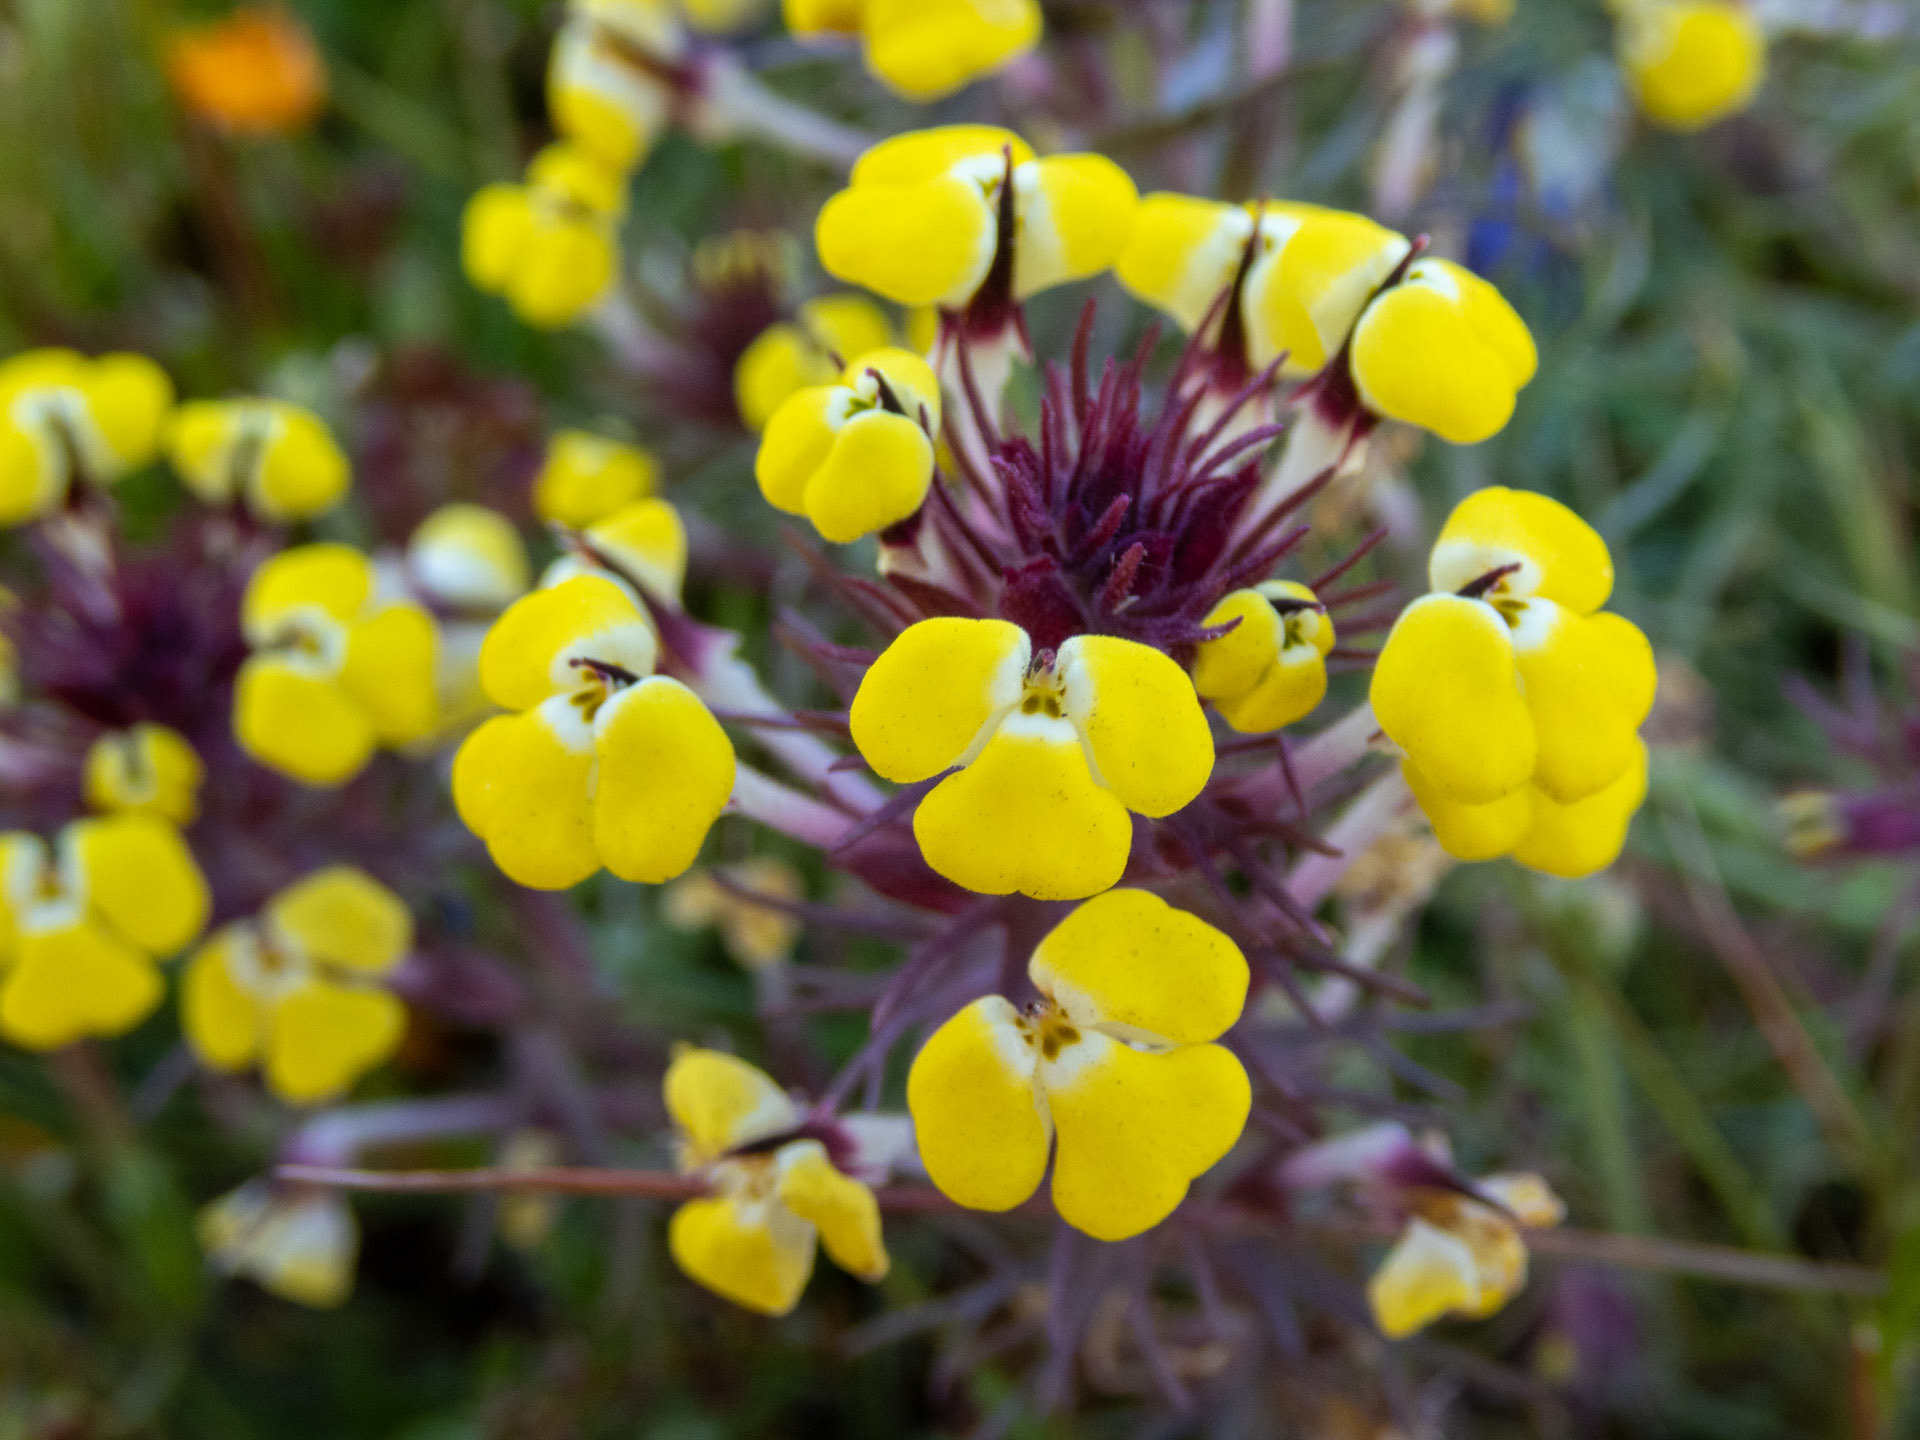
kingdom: Plantae
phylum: Tracheophyta
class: Magnoliopsida
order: Lamiales
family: Orobanchaceae
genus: Triphysaria
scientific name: Triphysaria eriantha
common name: Johnny-tuck
